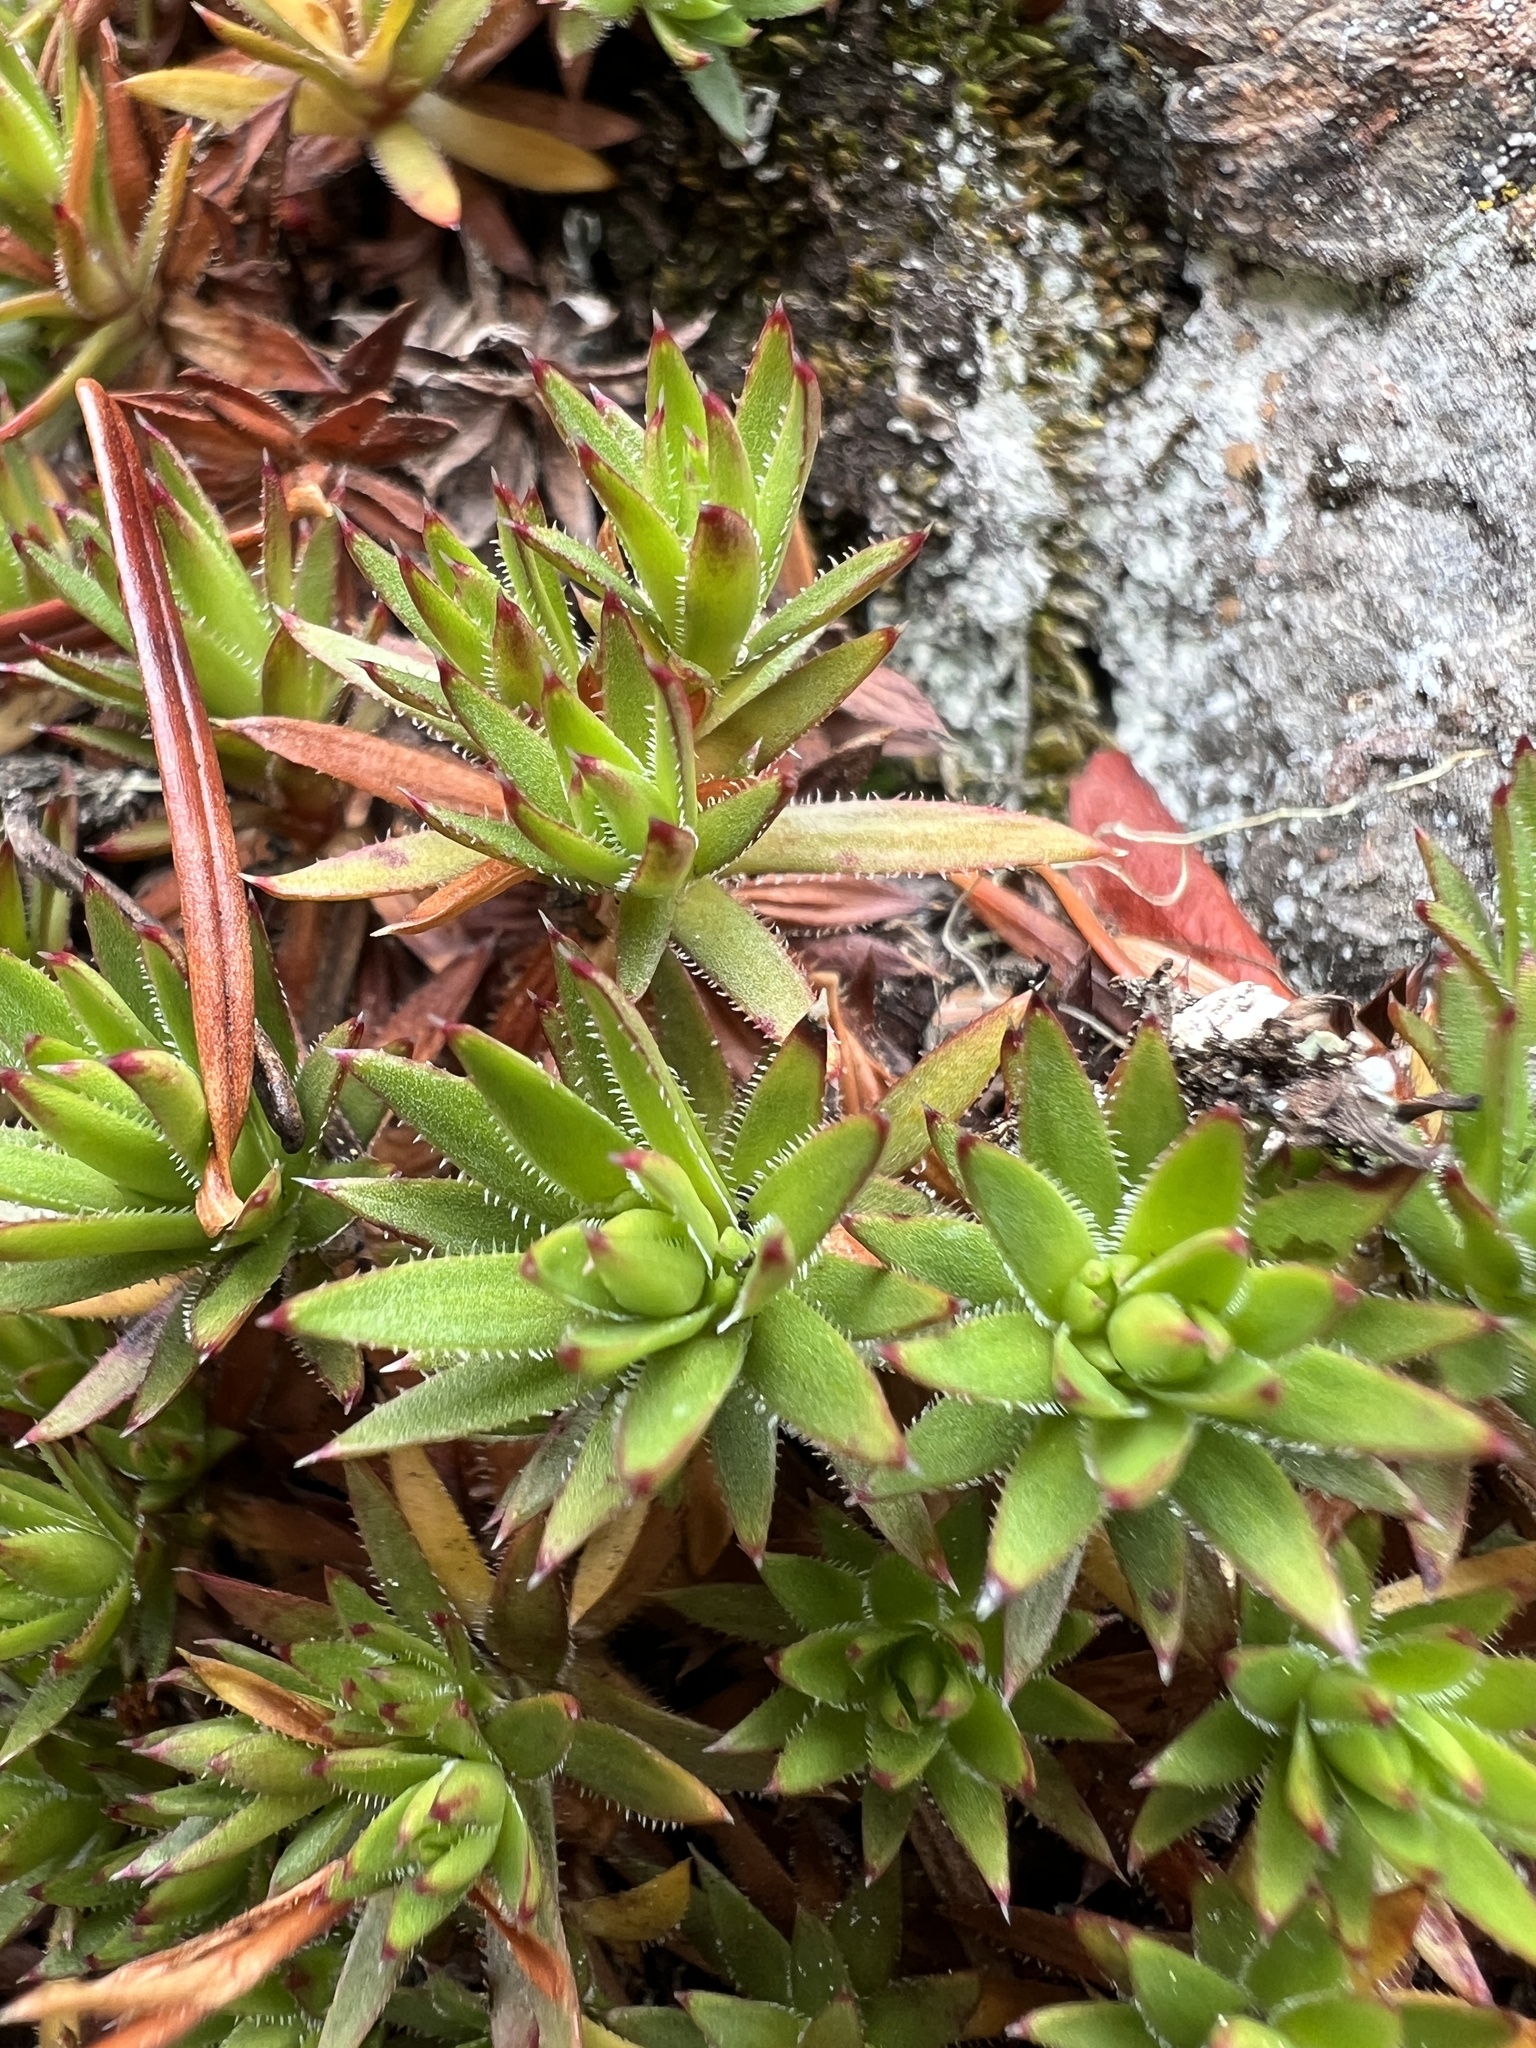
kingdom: Plantae
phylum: Tracheophyta
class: Magnoliopsida
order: Saxifragales
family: Saxifragaceae
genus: Saxifraga
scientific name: Saxifraga bronchialis
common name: Matted saxifrage
